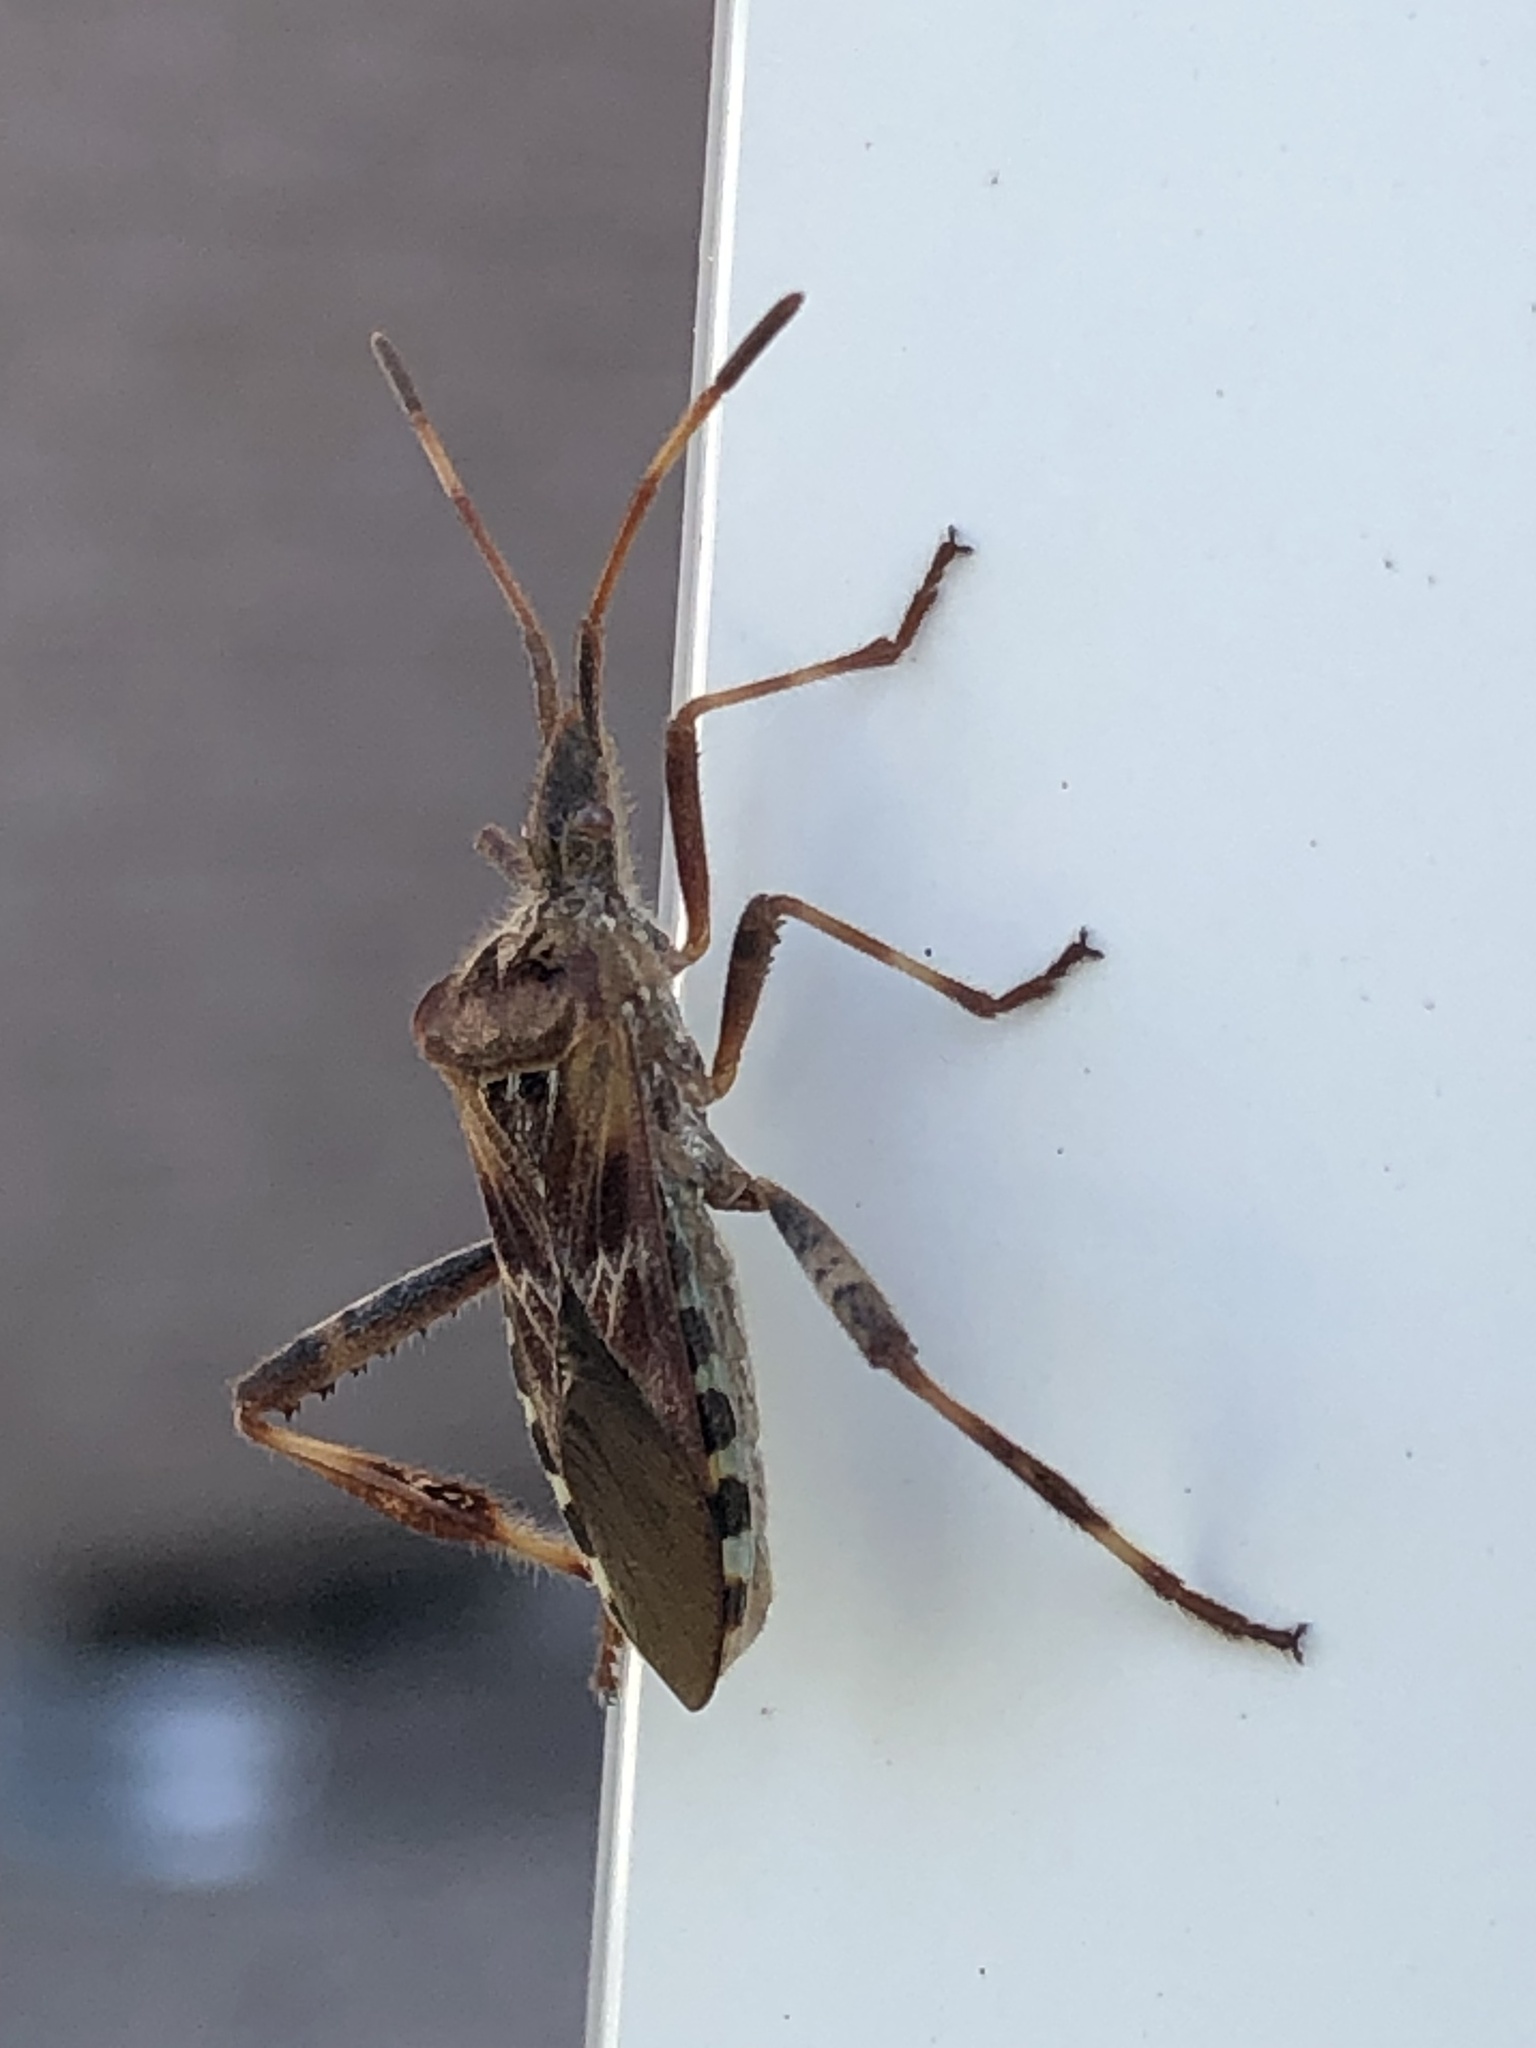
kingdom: Animalia
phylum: Arthropoda
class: Insecta
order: Hemiptera
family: Coreidae
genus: Leptoglossus
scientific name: Leptoglossus occidentalis
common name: Western conifer-seed bug
